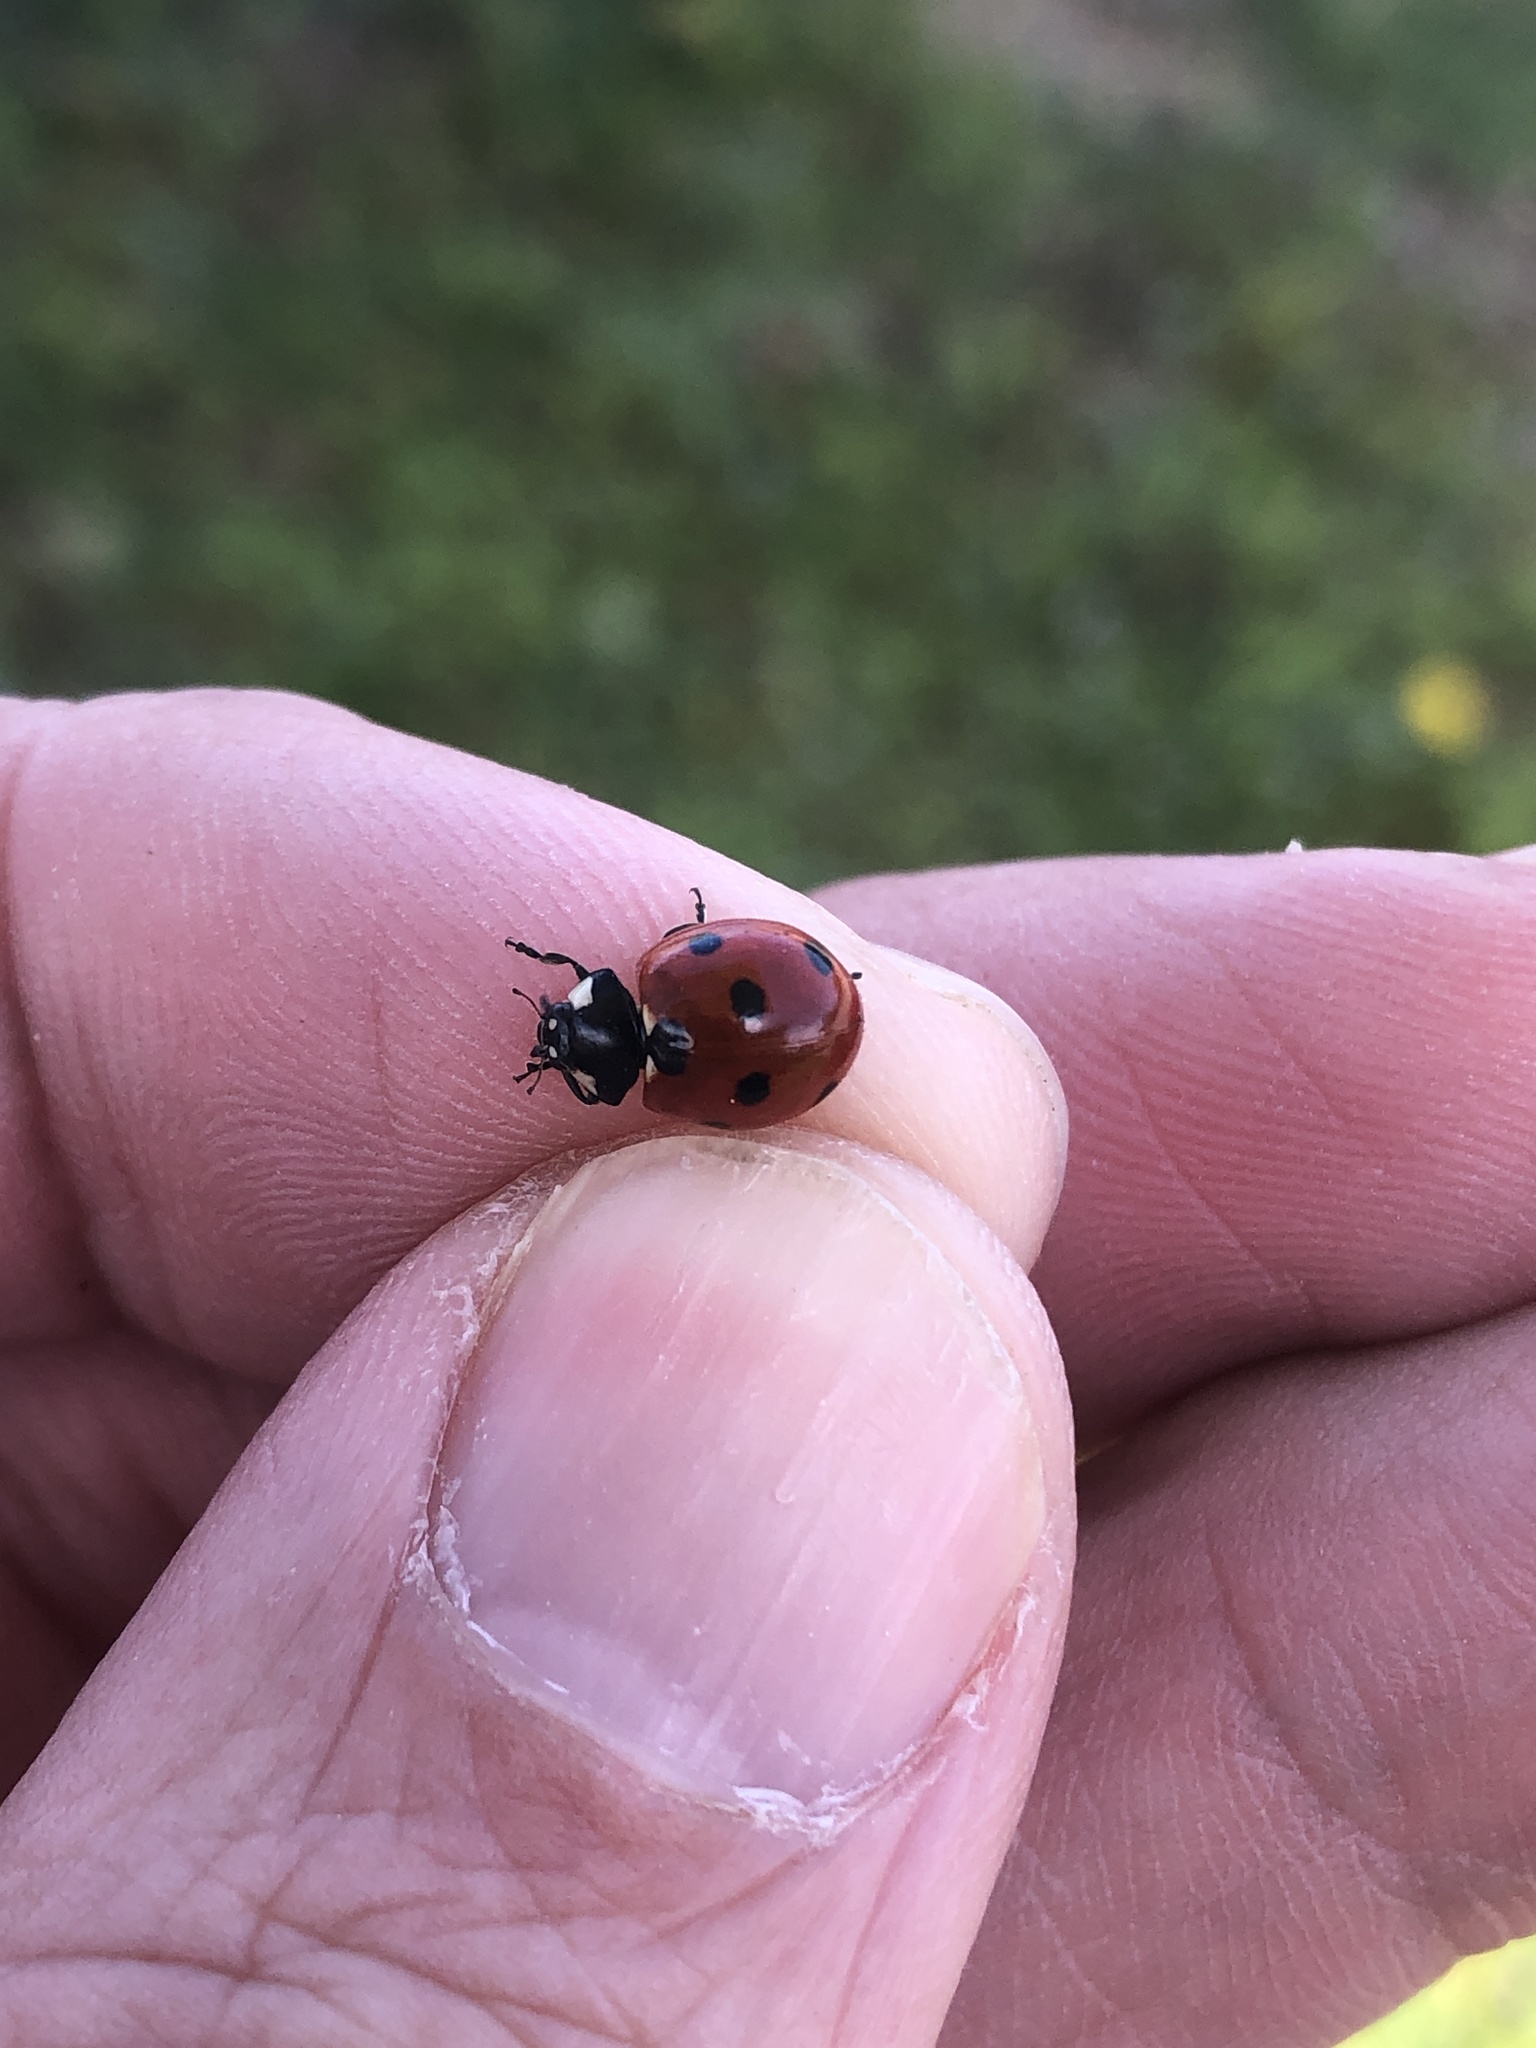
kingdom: Animalia
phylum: Arthropoda
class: Insecta
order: Coleoptera
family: Coccinellidae
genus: Coccinella
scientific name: Coccinella septempunctata
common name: Sevenspotted lady beetle
